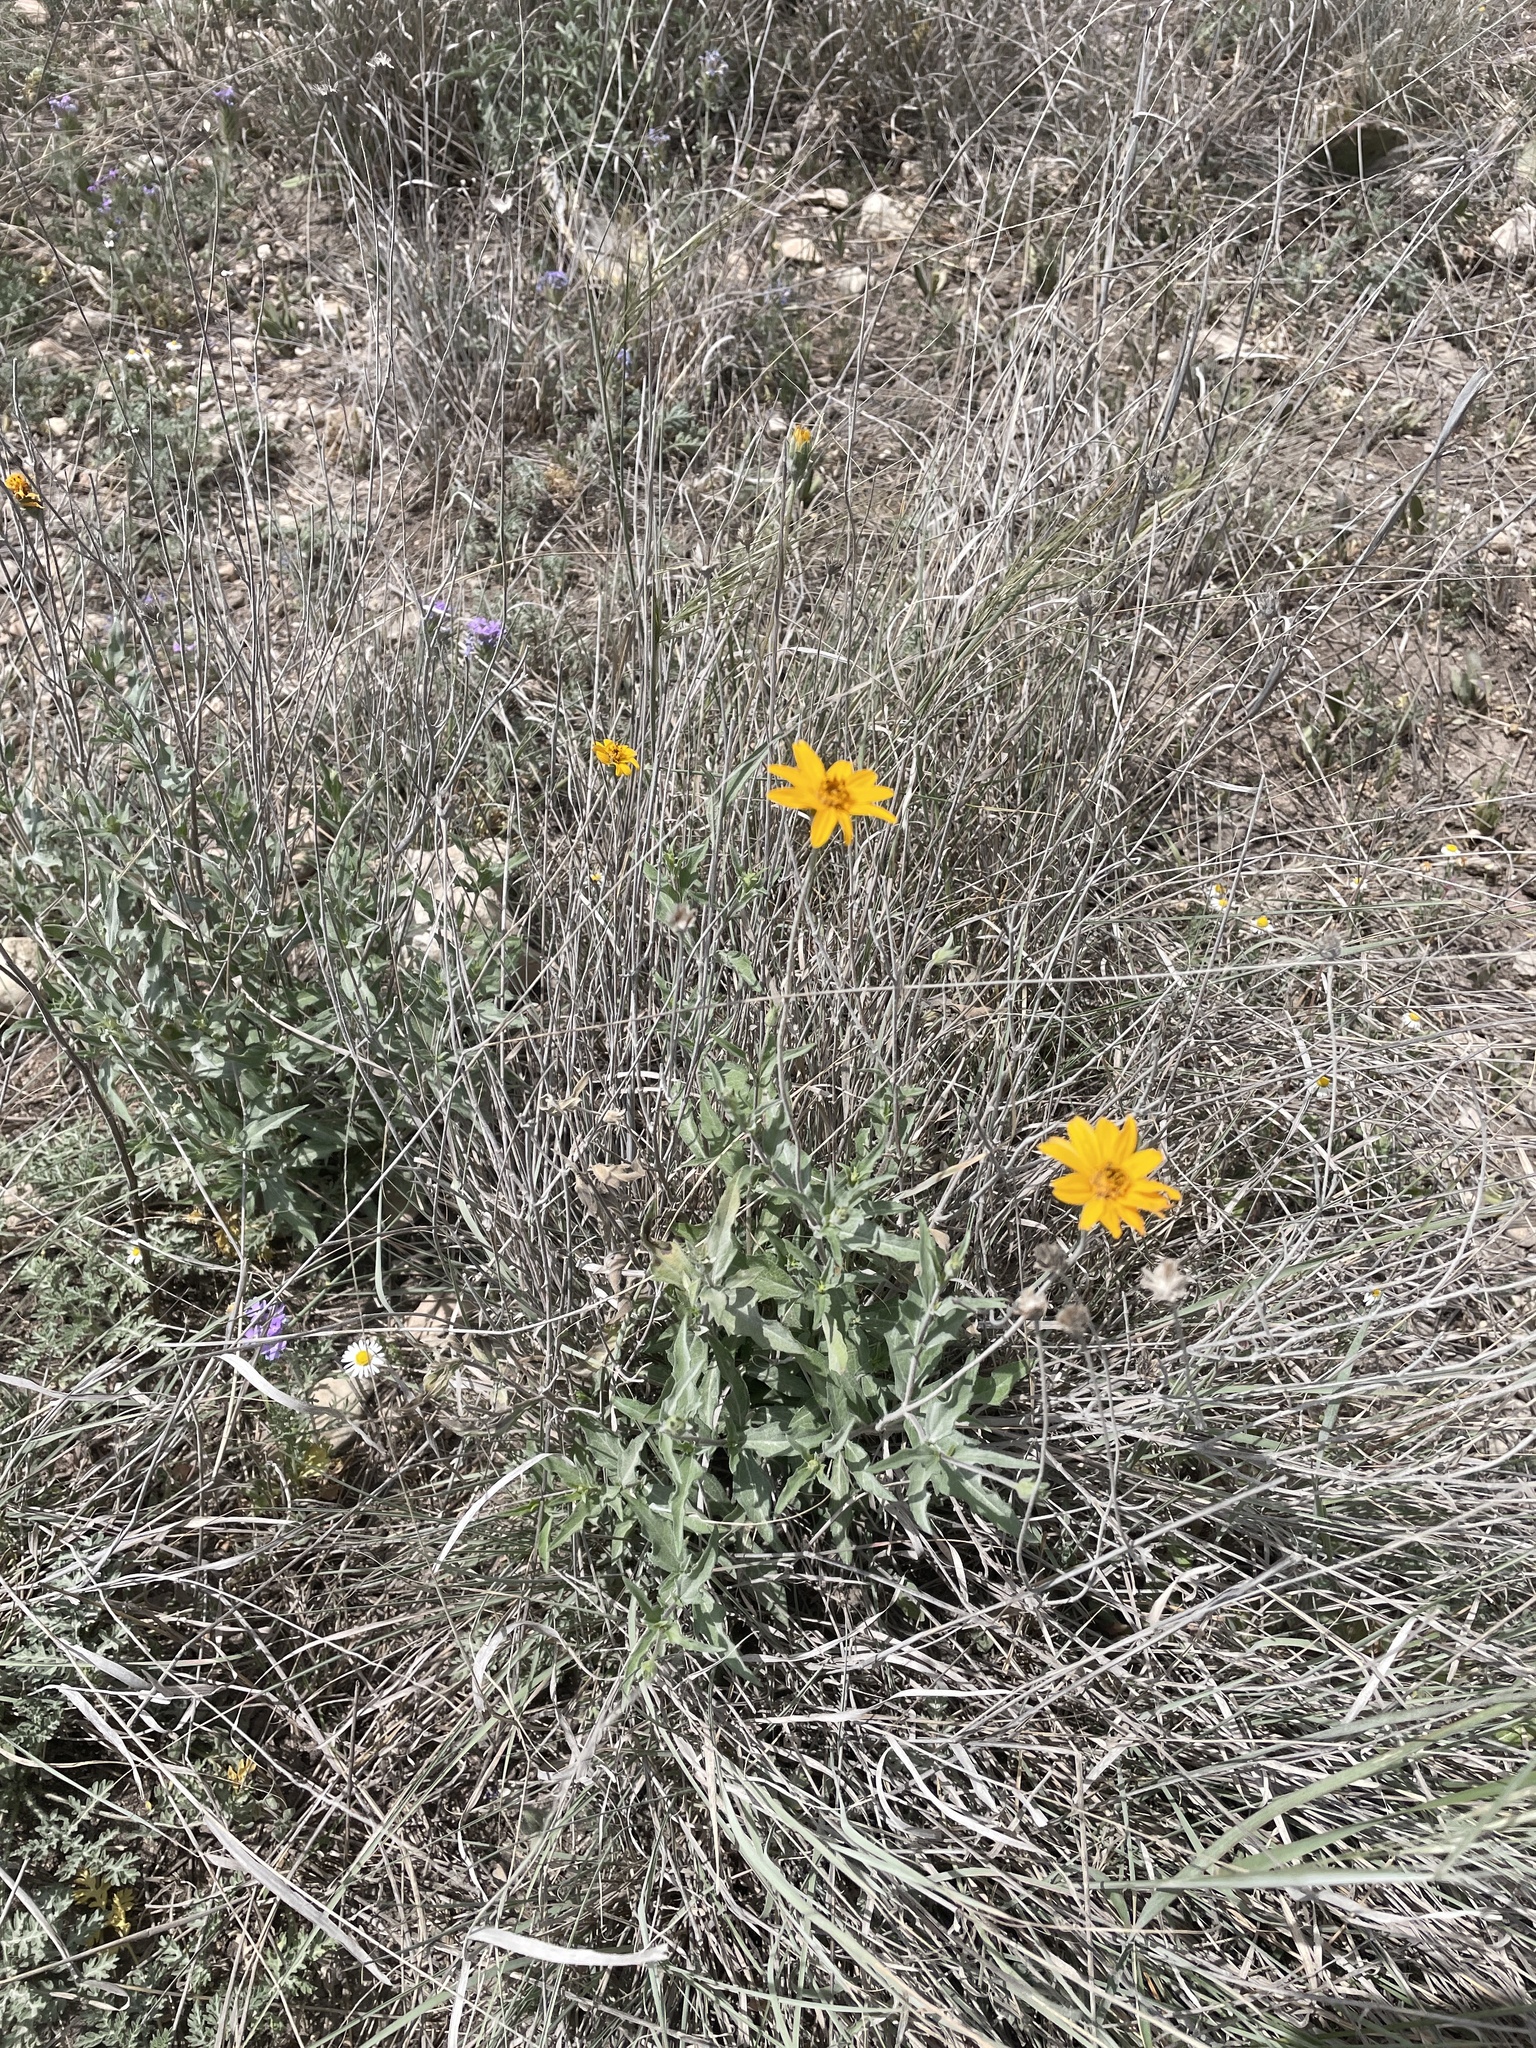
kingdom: Plantae
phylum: Tracheophyta
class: Magnoliopsida
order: Asterales
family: Asteraceae
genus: Wedelia
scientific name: Wedelia acapulcensis
